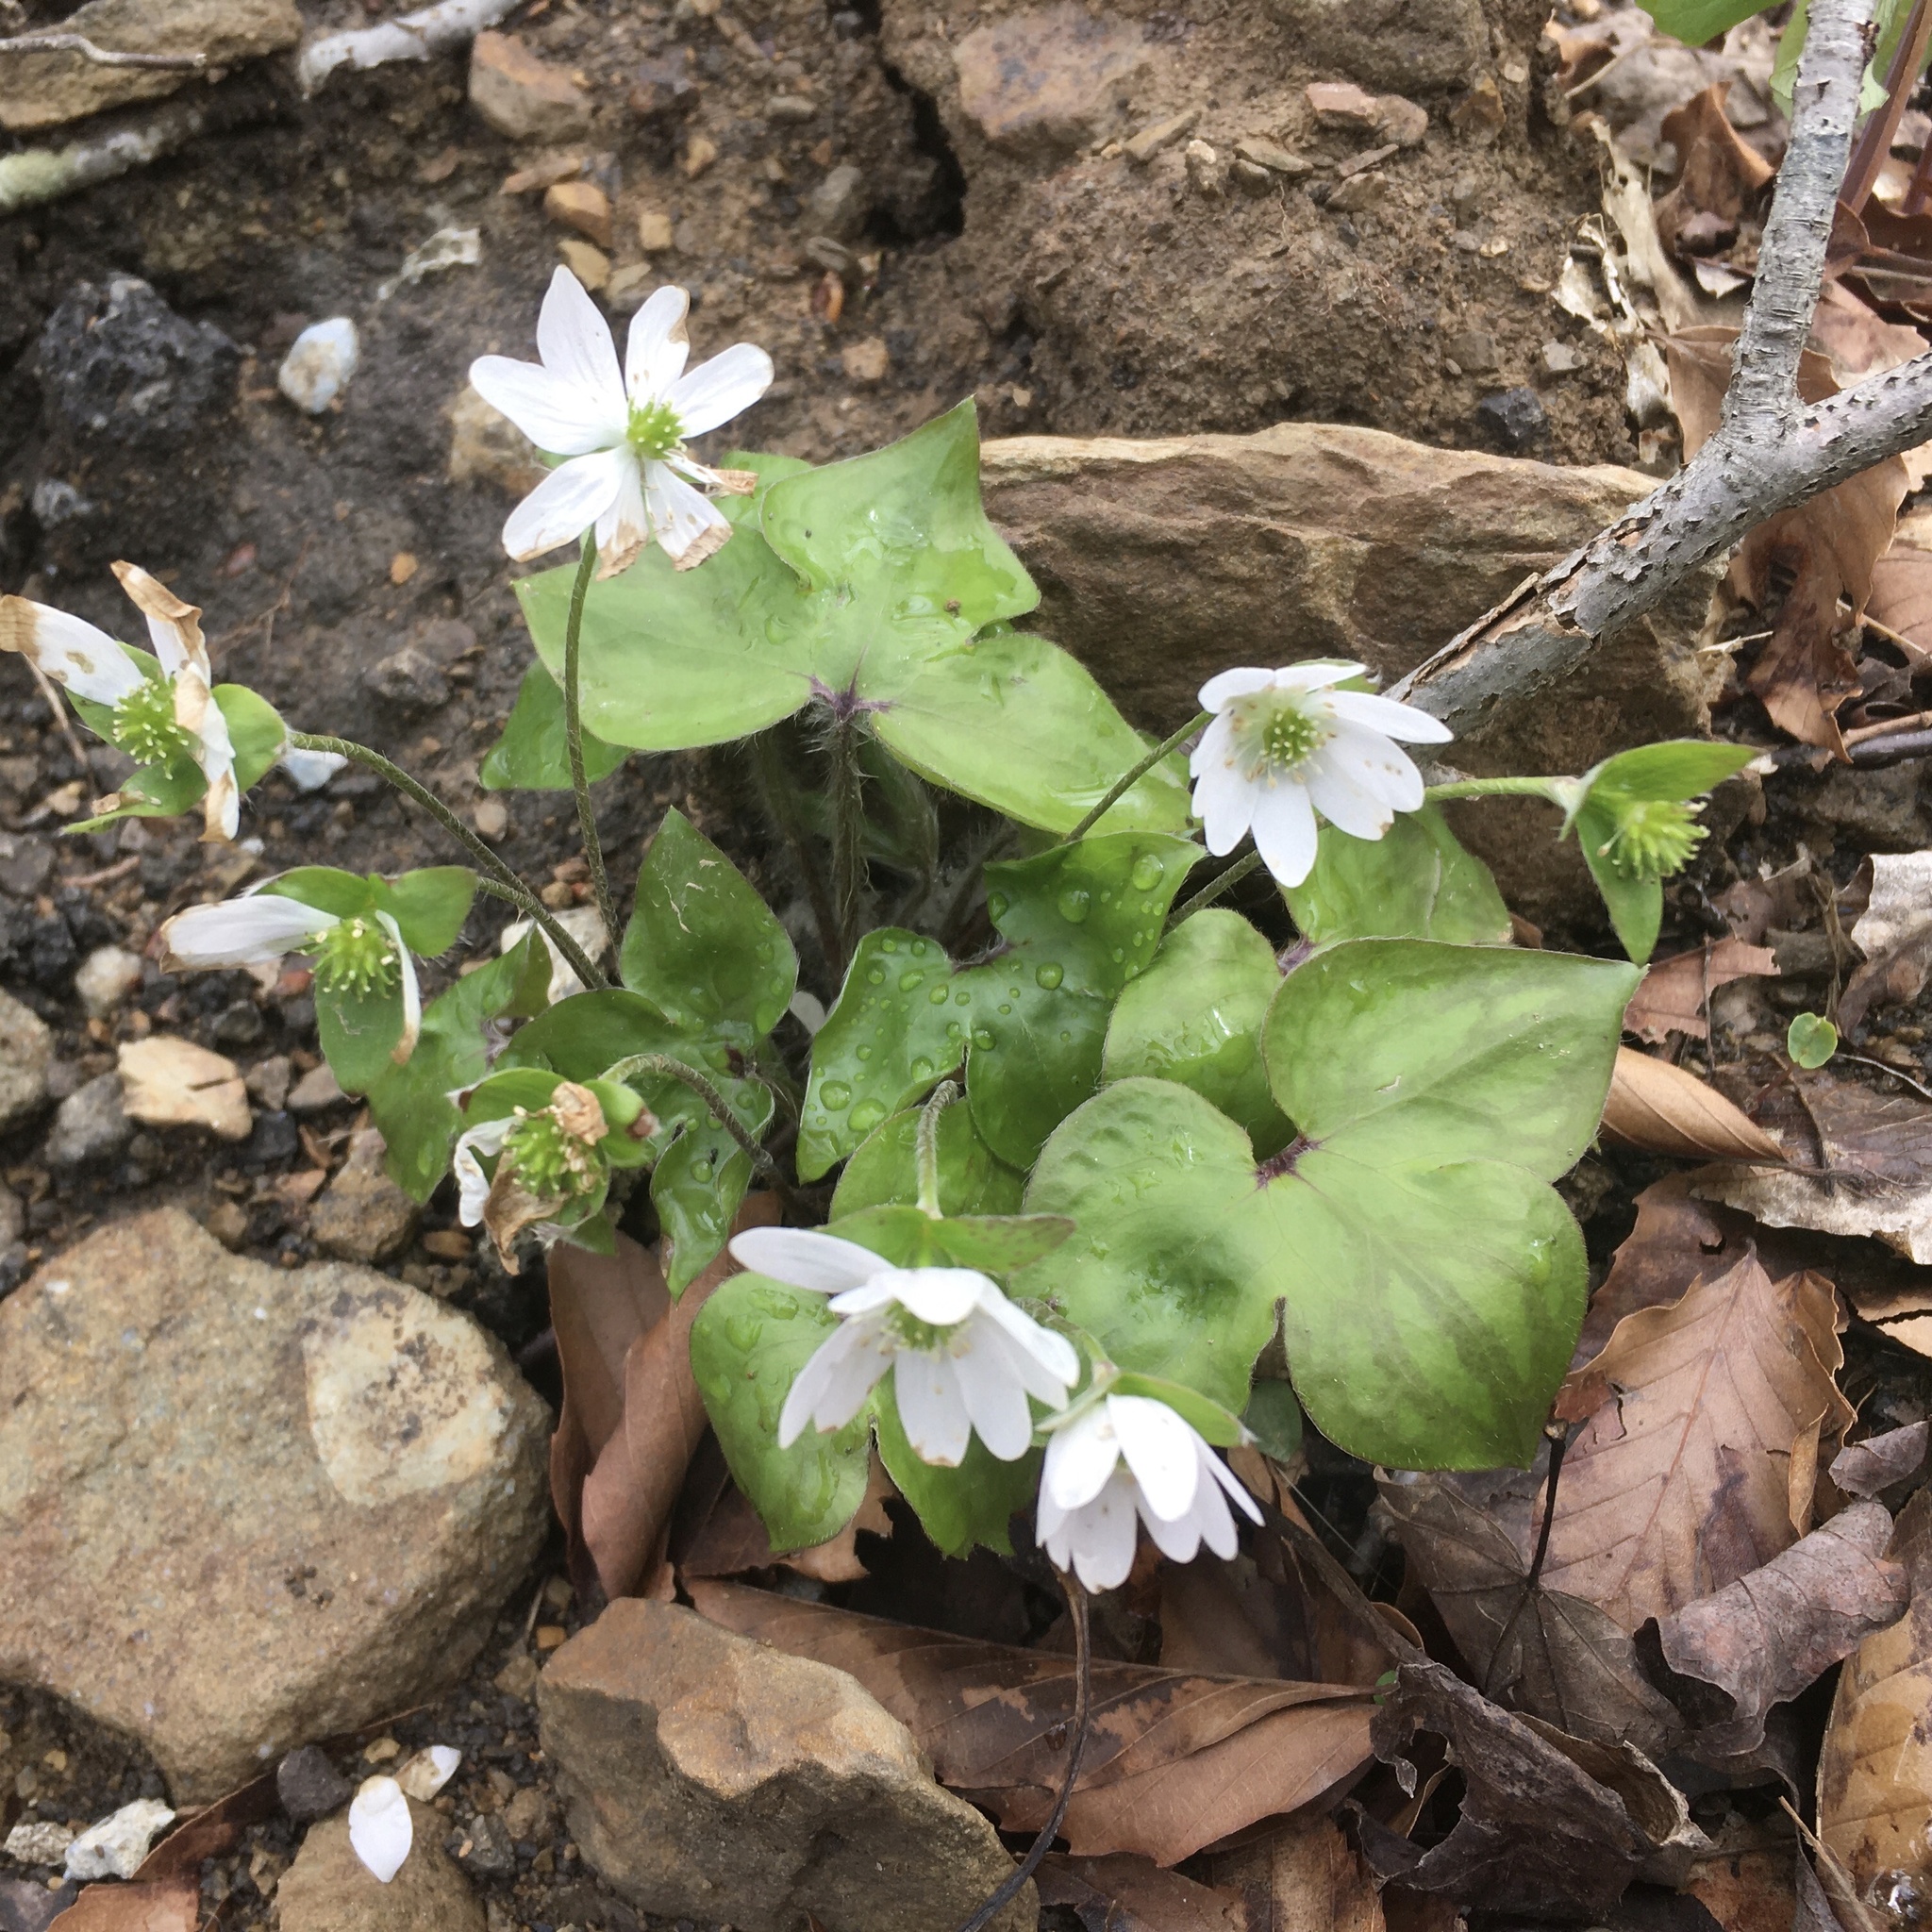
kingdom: Plantae
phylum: Tracheophyta
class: Magnoliopsida
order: Ranunculales
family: Ranunculaceae
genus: Hepatica
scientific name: Hepatica acutiloba
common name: Sharp-lobed hepatica
